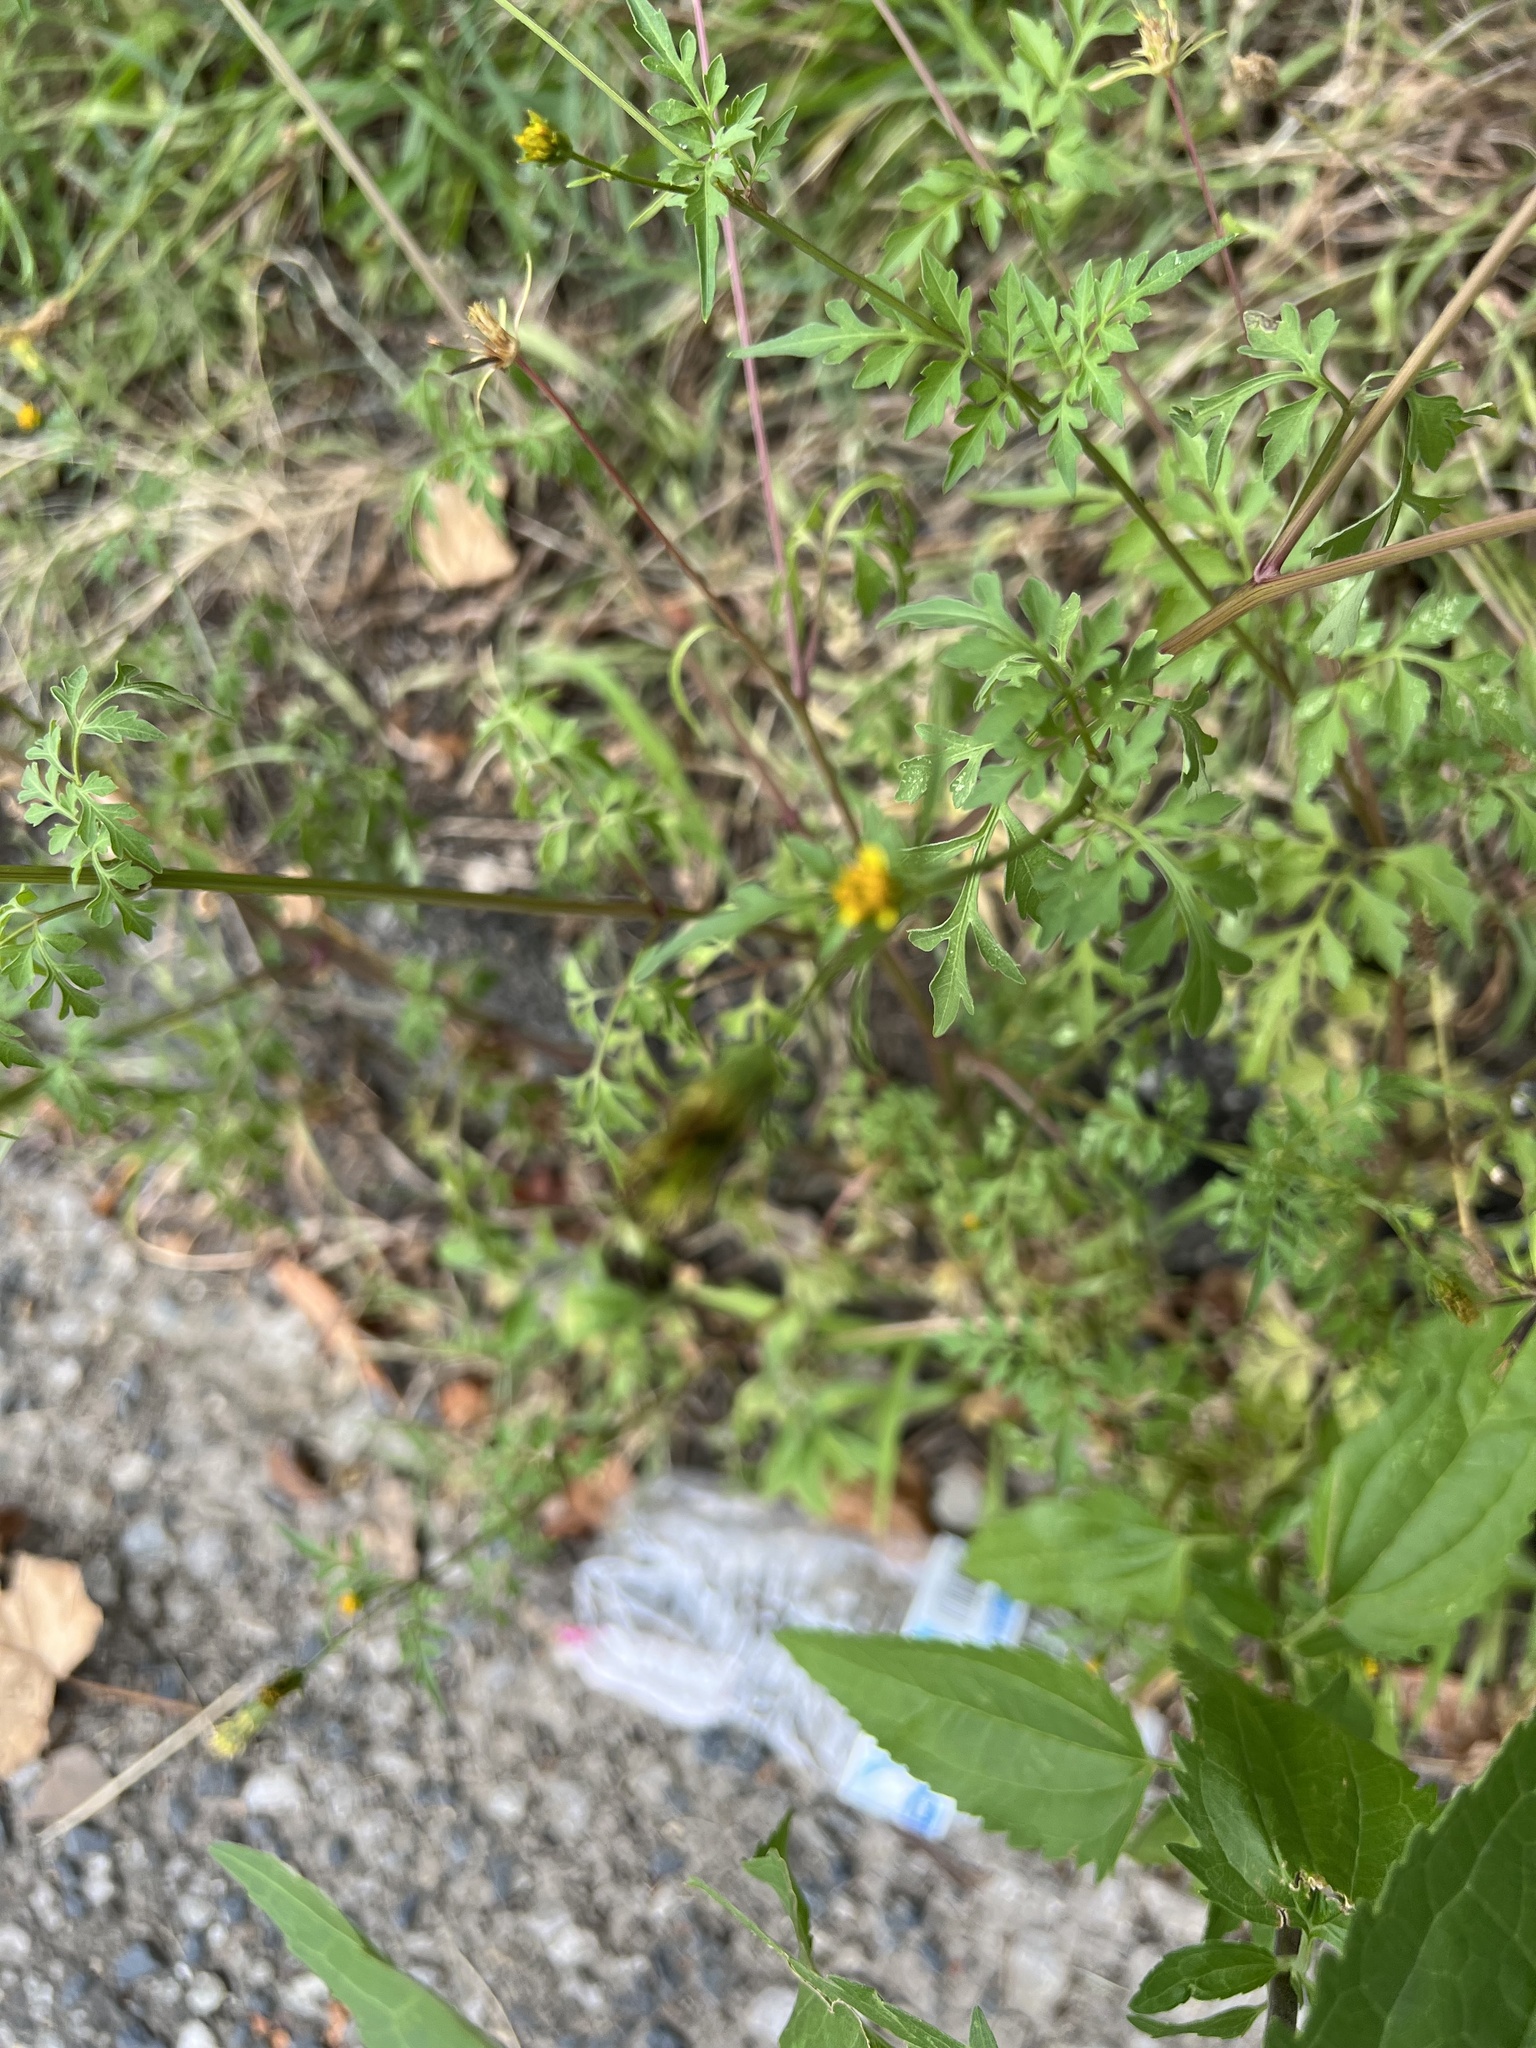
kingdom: Plantae
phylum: Tracheophyta
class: Magnoliopsida
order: Asterales
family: Asteraceae
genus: Bidens
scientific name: Bidens bipinnata
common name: Spanish-needles
